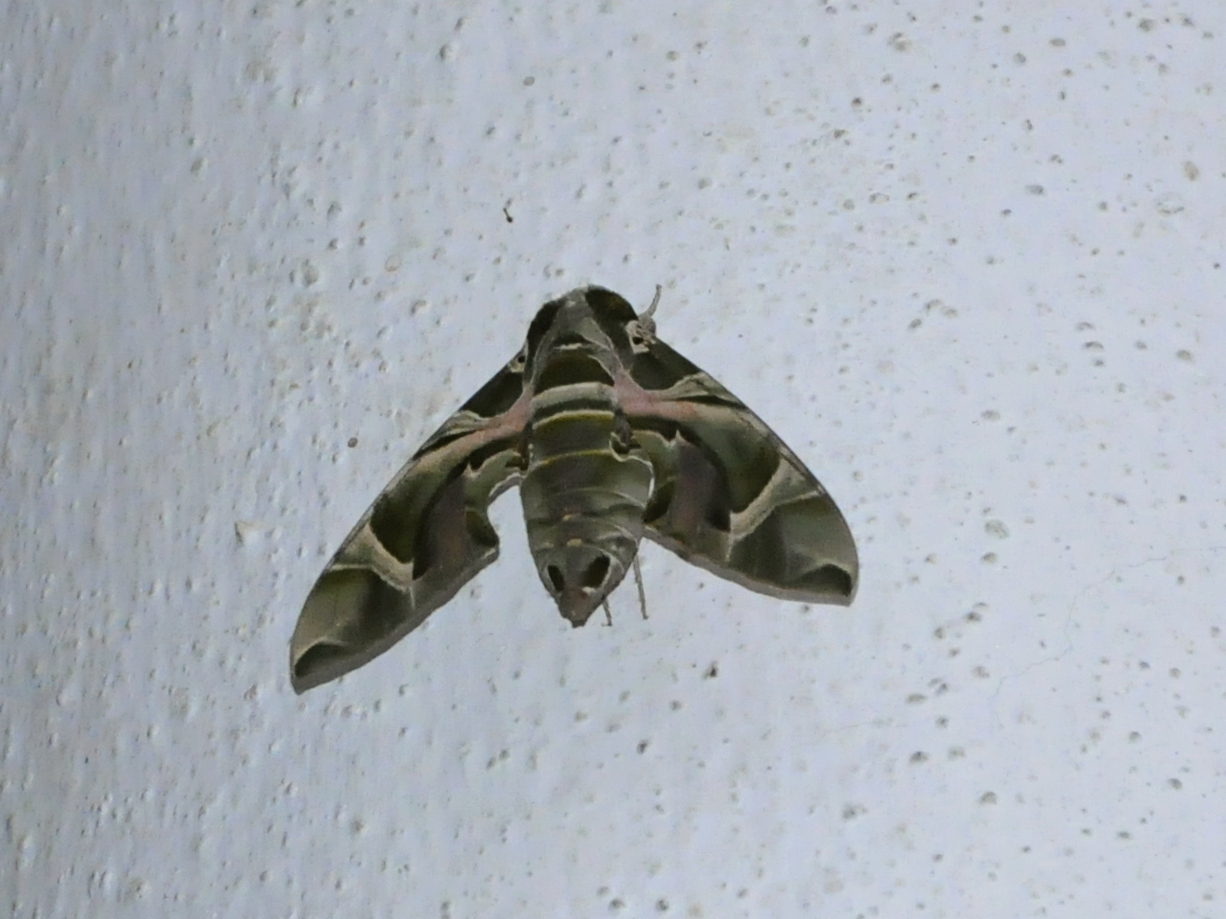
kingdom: Animalia
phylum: Arthropoda
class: Insecta
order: Lepidoptera
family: Sphingidae
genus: Daphnis
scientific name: Daphnis nerii
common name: Oleander hawk-moth
